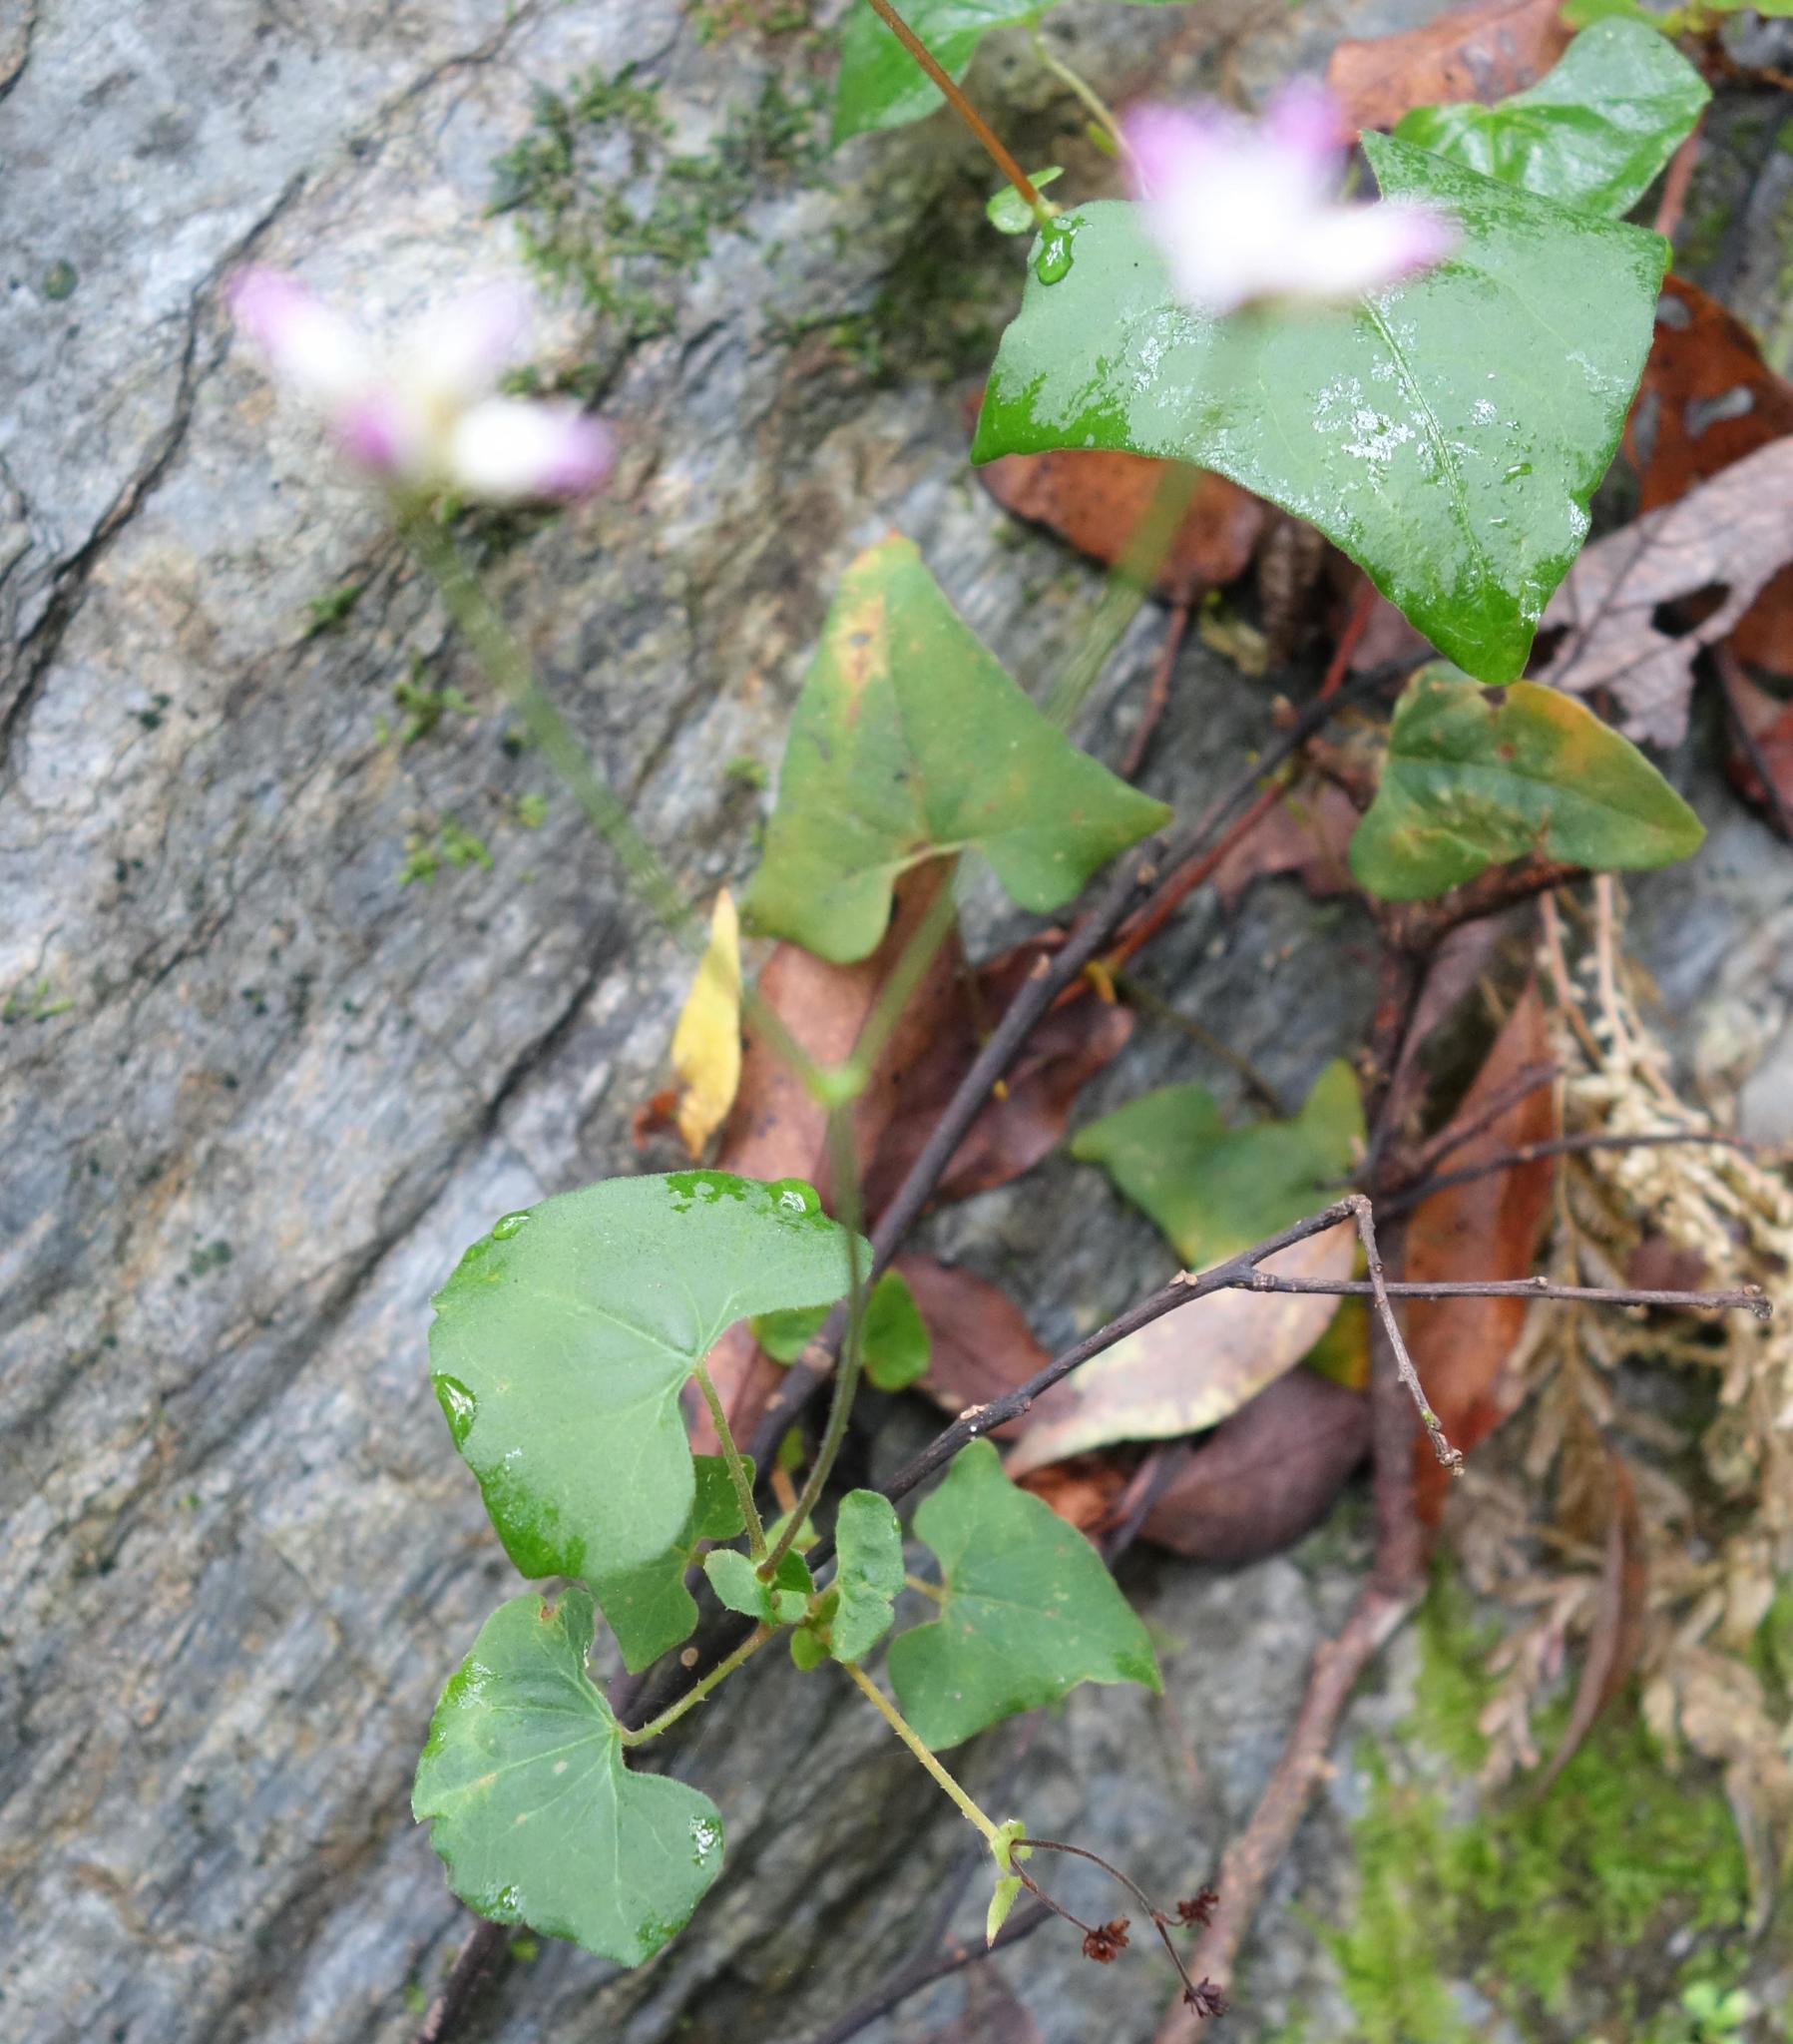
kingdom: Plantae
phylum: Tracheophyta
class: Magnoliopsida
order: Caryophyllales
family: Polygonaceae
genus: Persicaria
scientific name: Persicaria senticosa
